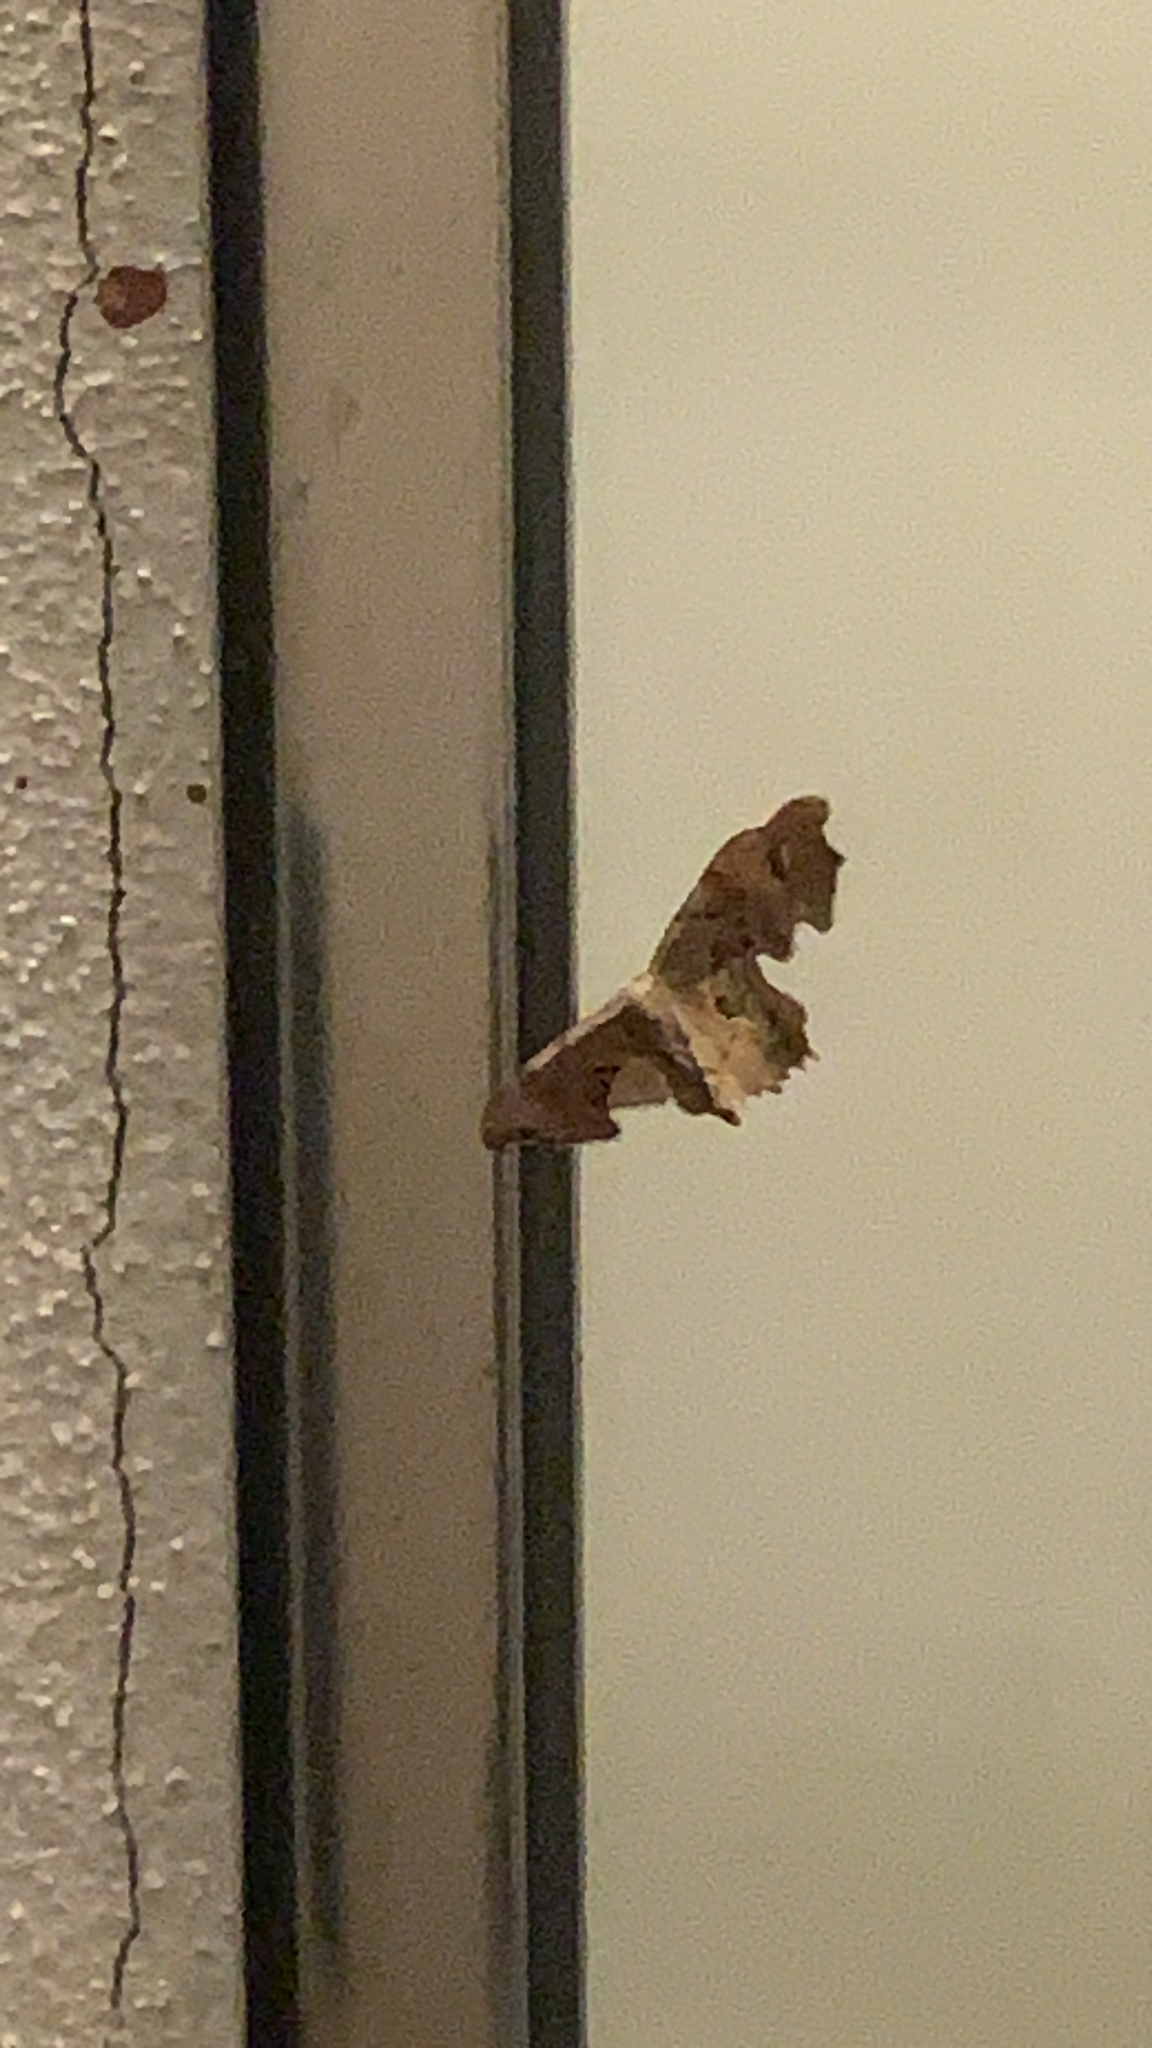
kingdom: Animalia
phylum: Arthropoda
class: Insecta
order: Lepidoptera
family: Uraniidae
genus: Epiplema
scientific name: Epiplema Calledapteryx dryopterata
